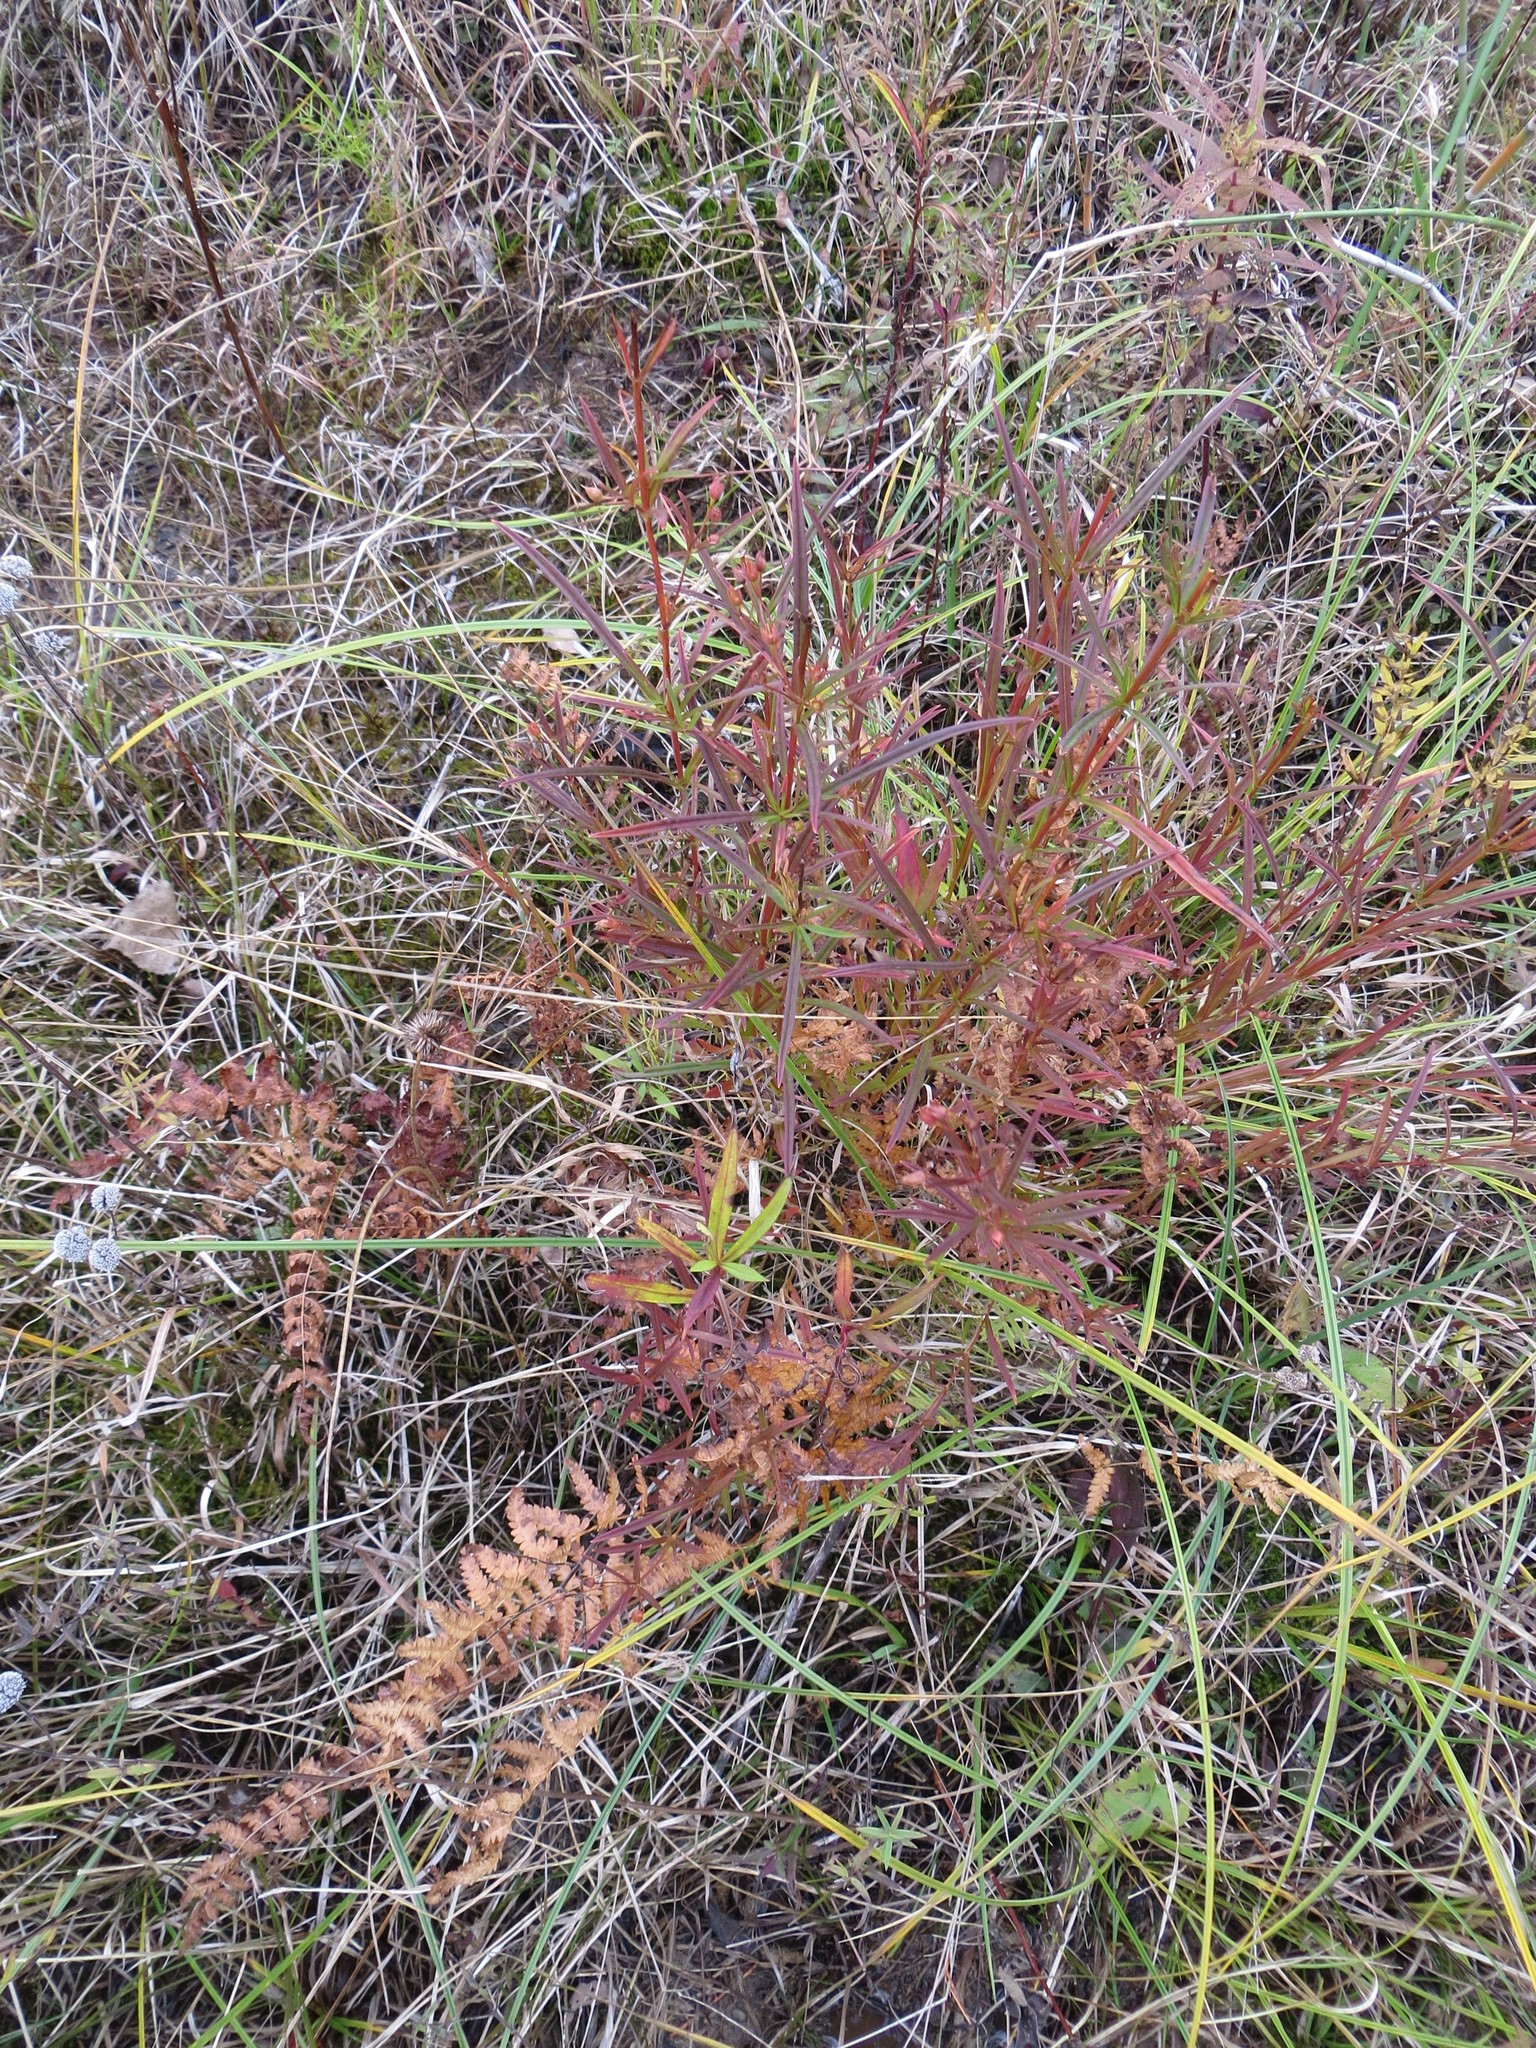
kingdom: Plantae
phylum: Tracheophyta
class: Magnoliopsida
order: Ericales
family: Primulaceae
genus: Lysimachia
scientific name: Lysimachia quadriflora
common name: Four-flowered loosestrife
